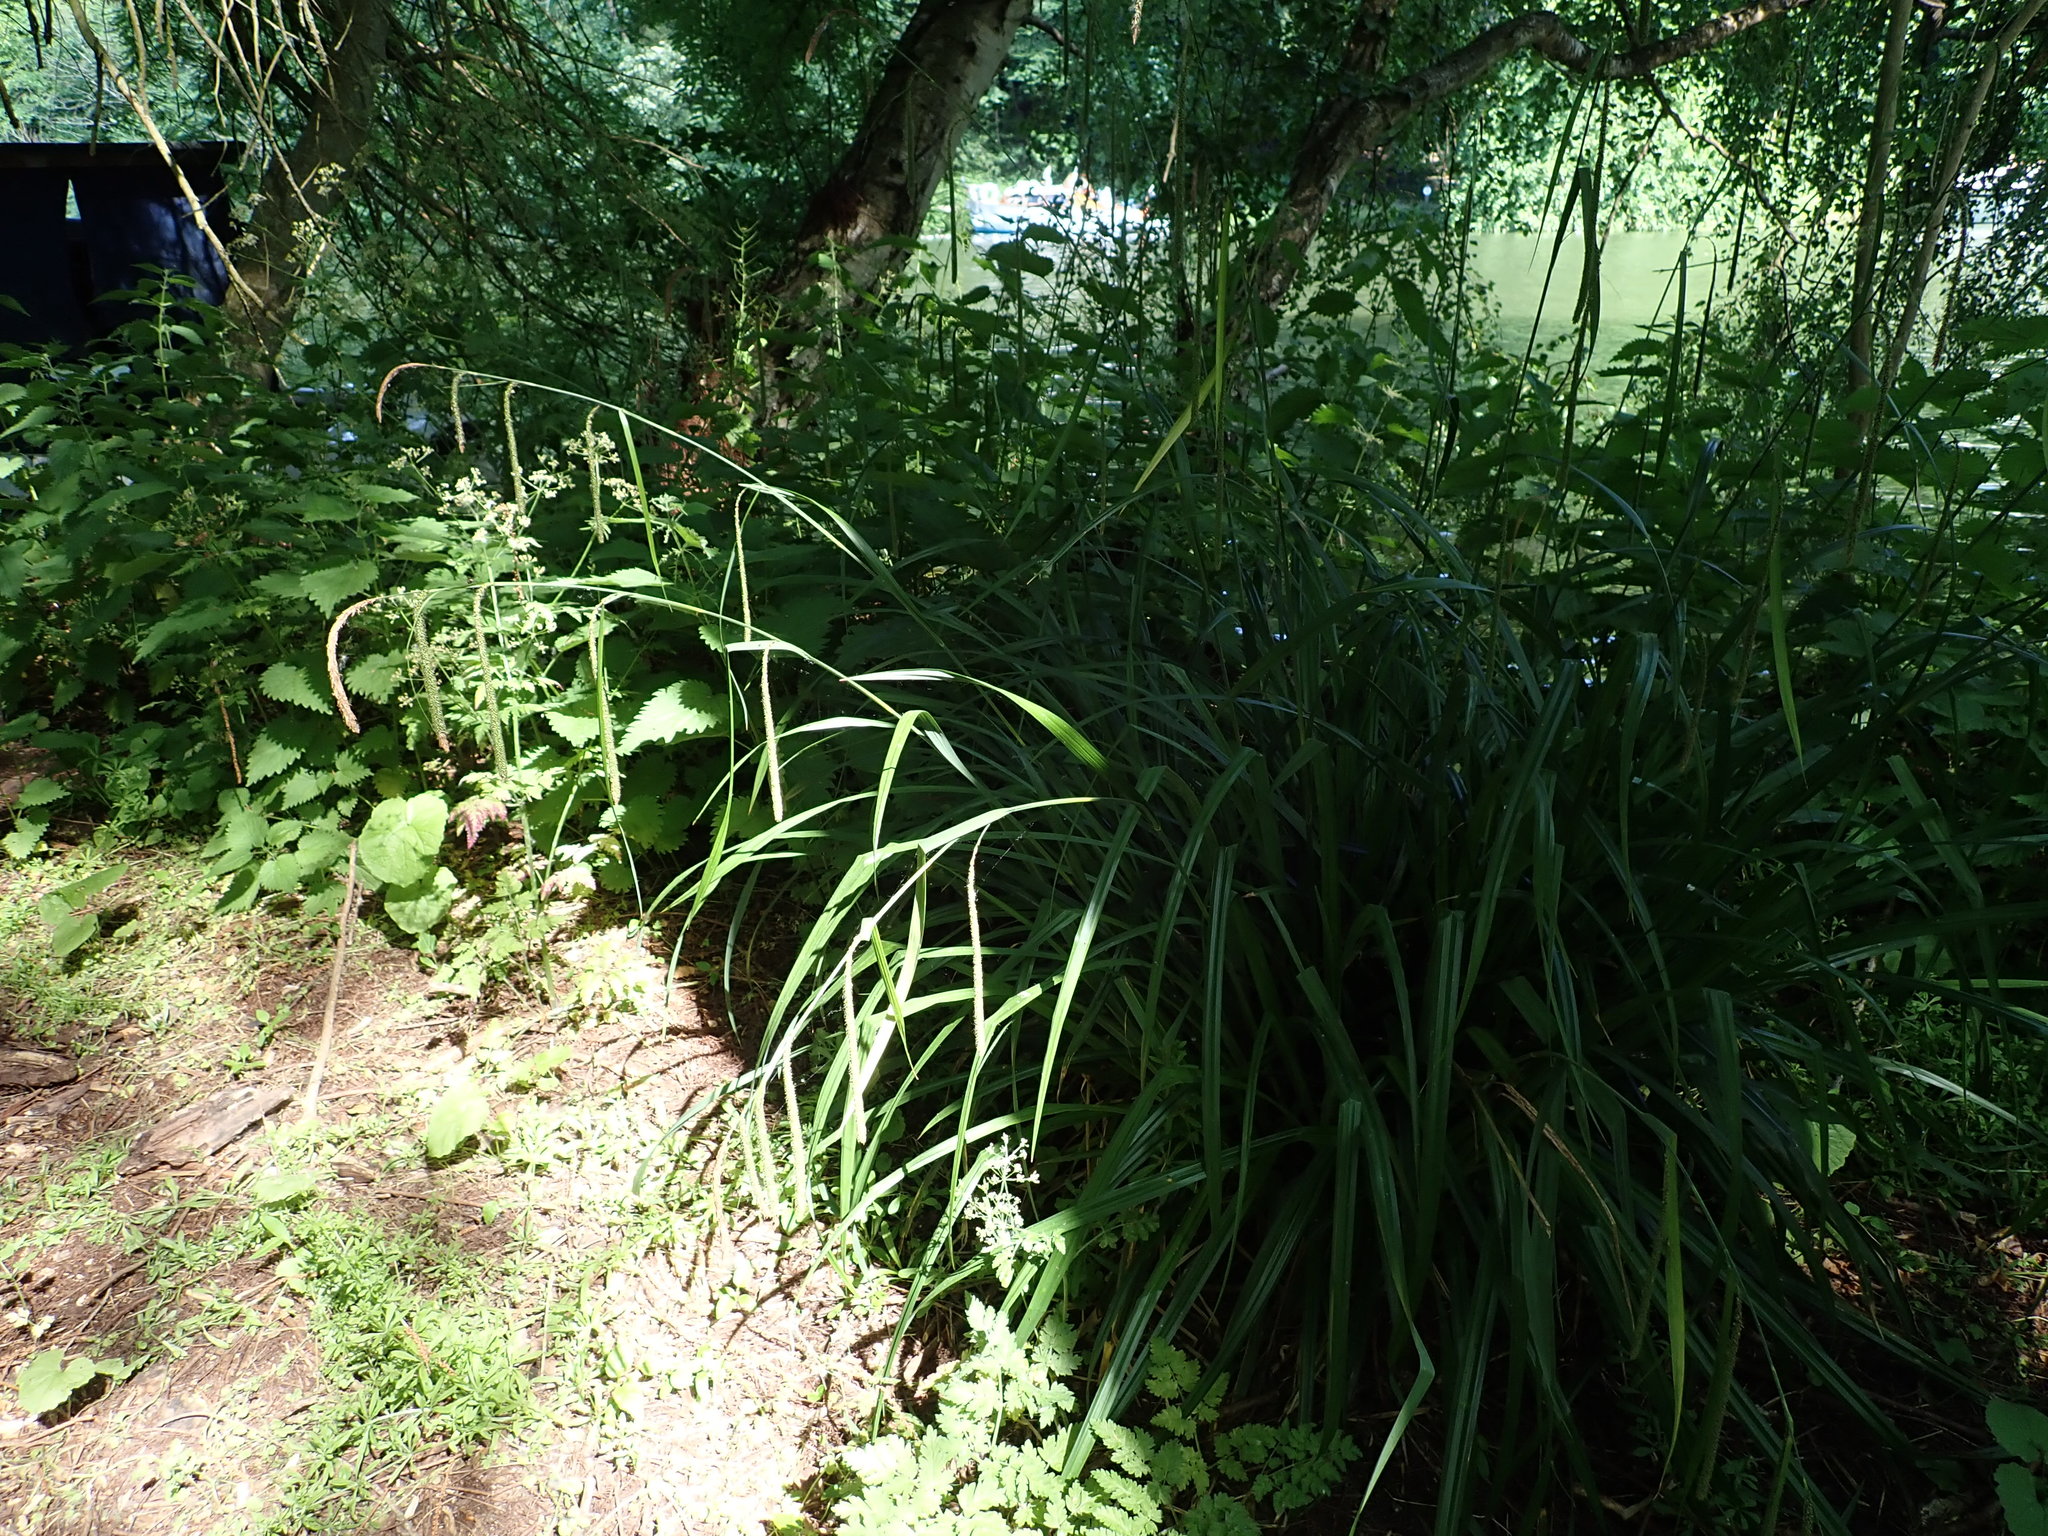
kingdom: Plantae
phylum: Tracheophyta
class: Liliopsida
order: Poales
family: Cyperaceae
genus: Carex
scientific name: Carex pendula
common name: Pendulous sedge
